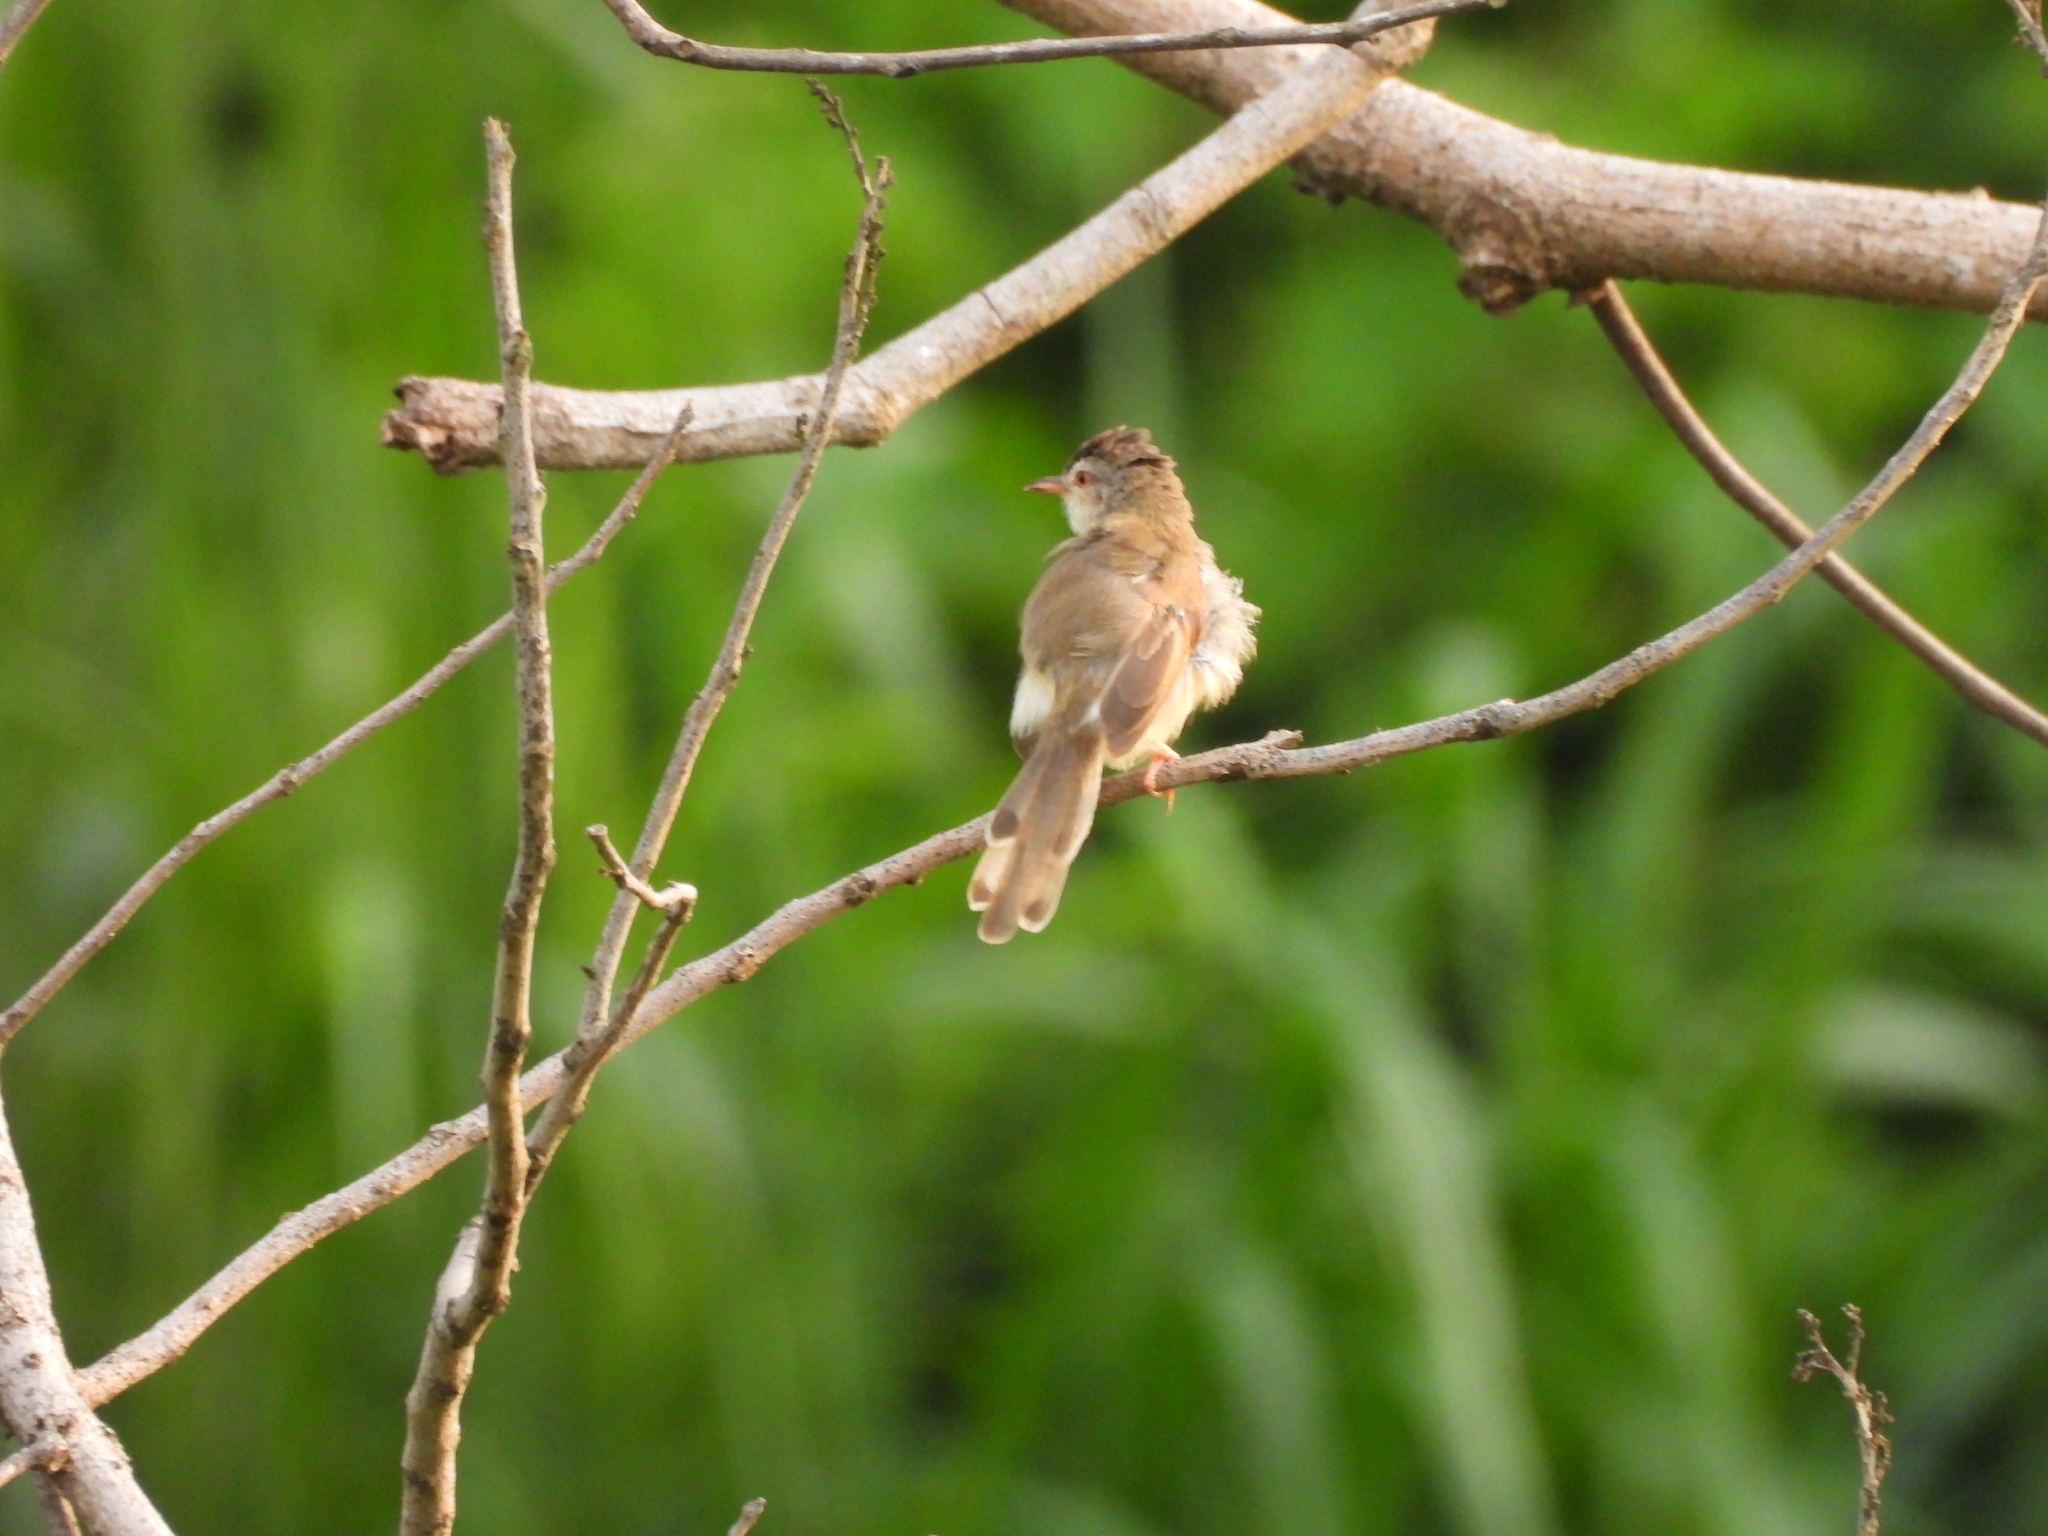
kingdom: Animalia
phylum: Chordata
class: Aves
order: Passeriformes
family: Cisticolidae
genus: Prinia
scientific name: Prinia inornata
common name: Plain prinia
